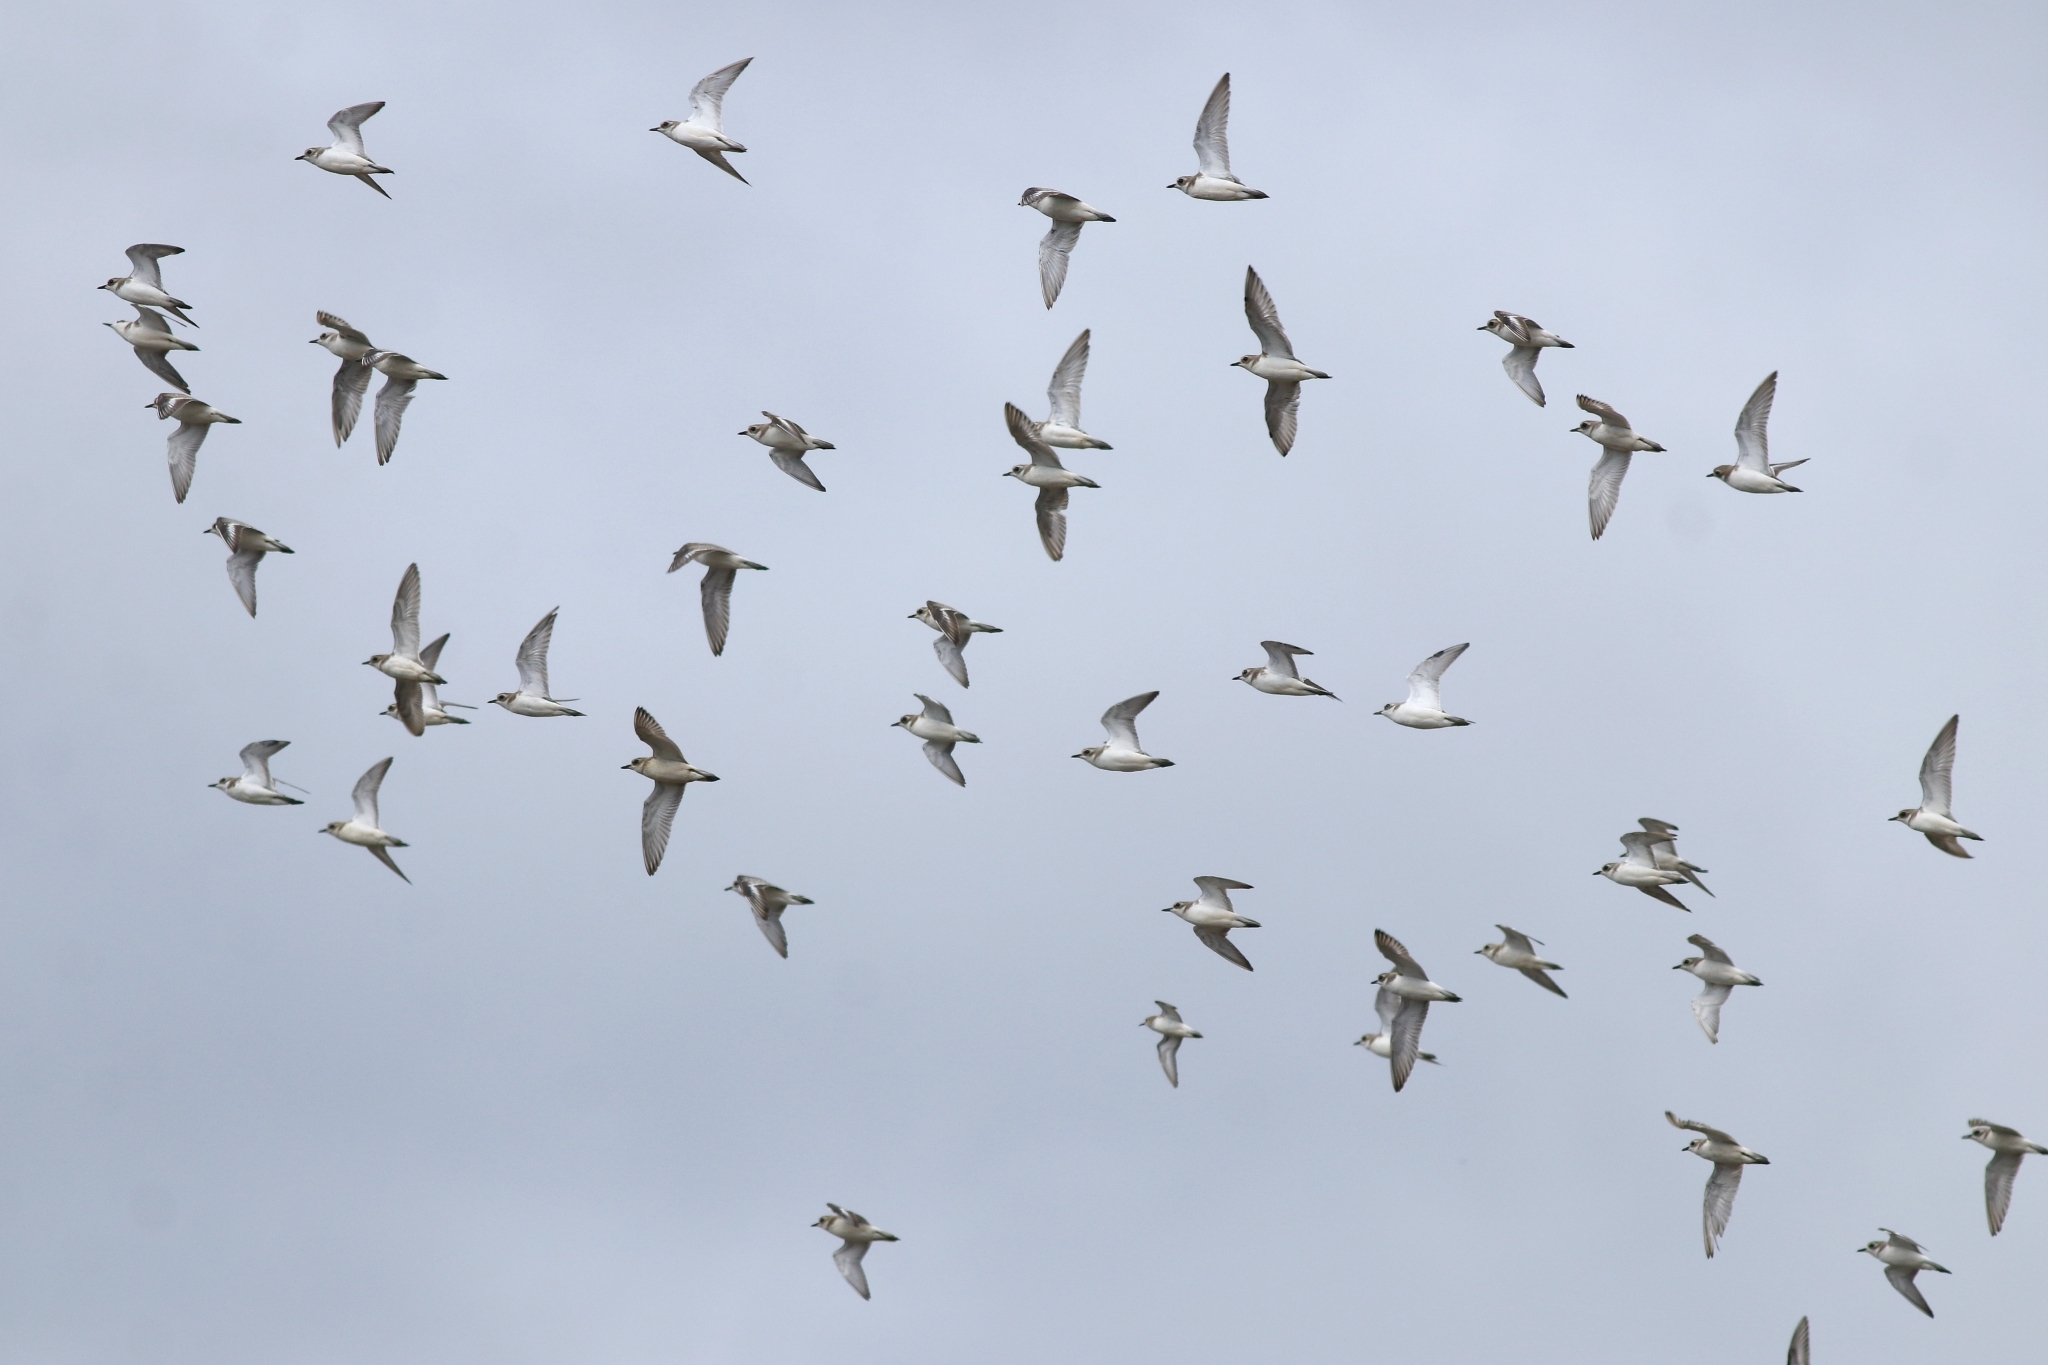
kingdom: Animalia
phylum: Chordata
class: Aves
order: Charadriiformes
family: Charadriidae
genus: Anarhynchus
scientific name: Anarhynchus
